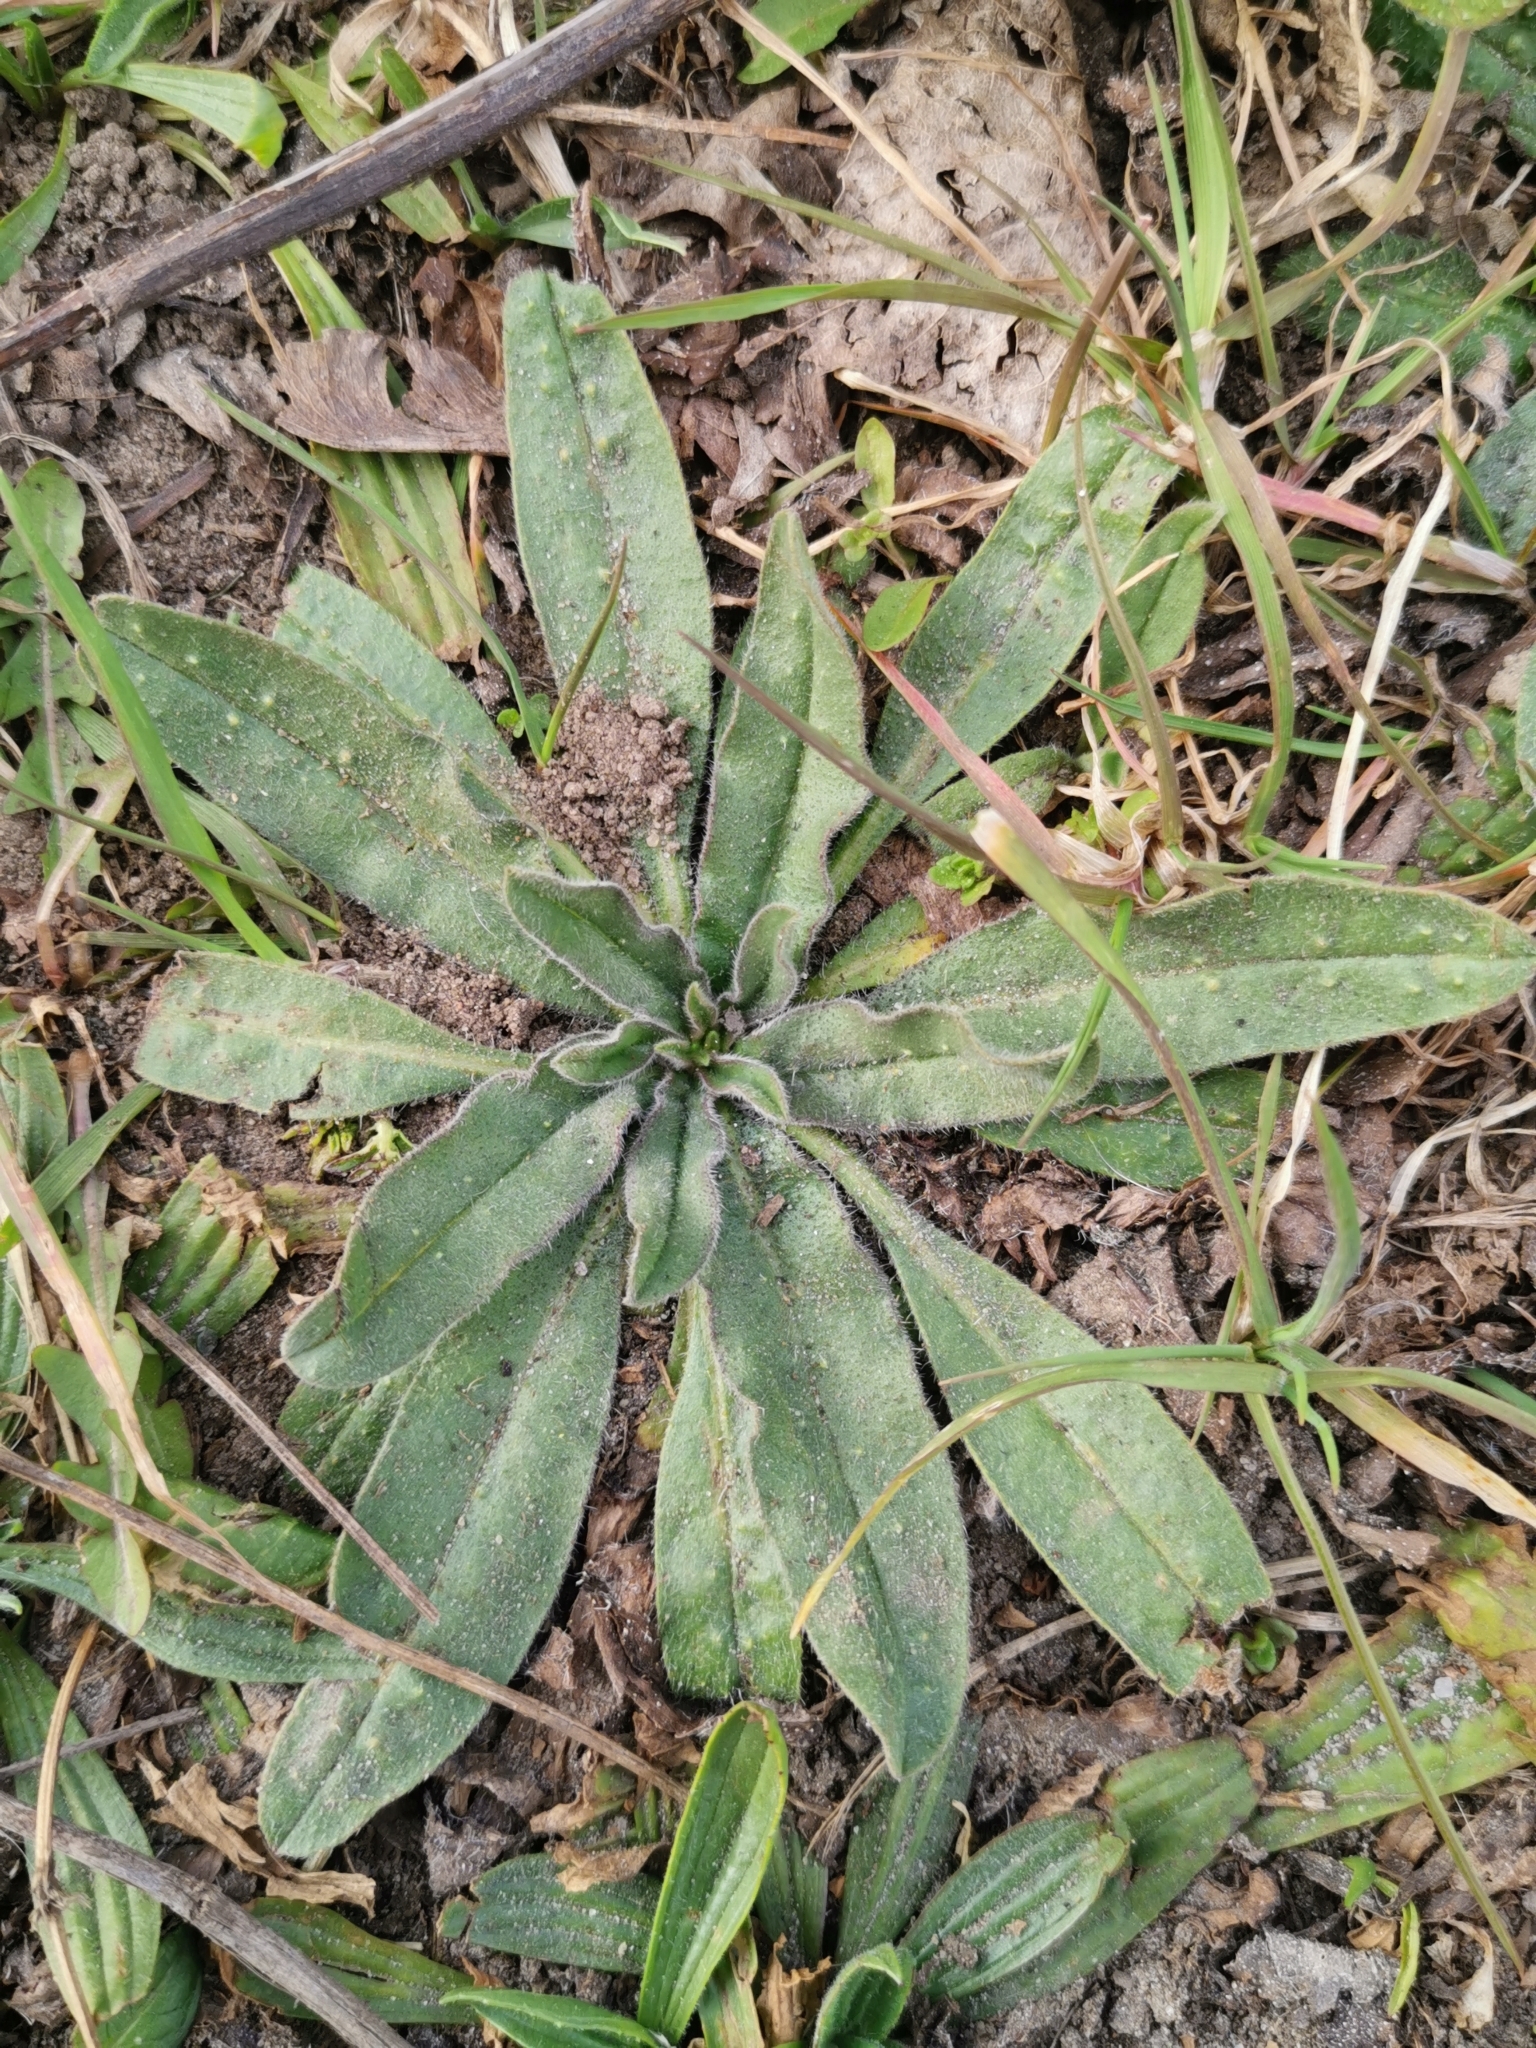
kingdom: Plantae
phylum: Tracheophyta
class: Magnoliopsida
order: Boraginales
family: Boraginaceae
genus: Echium
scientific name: Echium vulgare
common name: Common viper's bugloss
